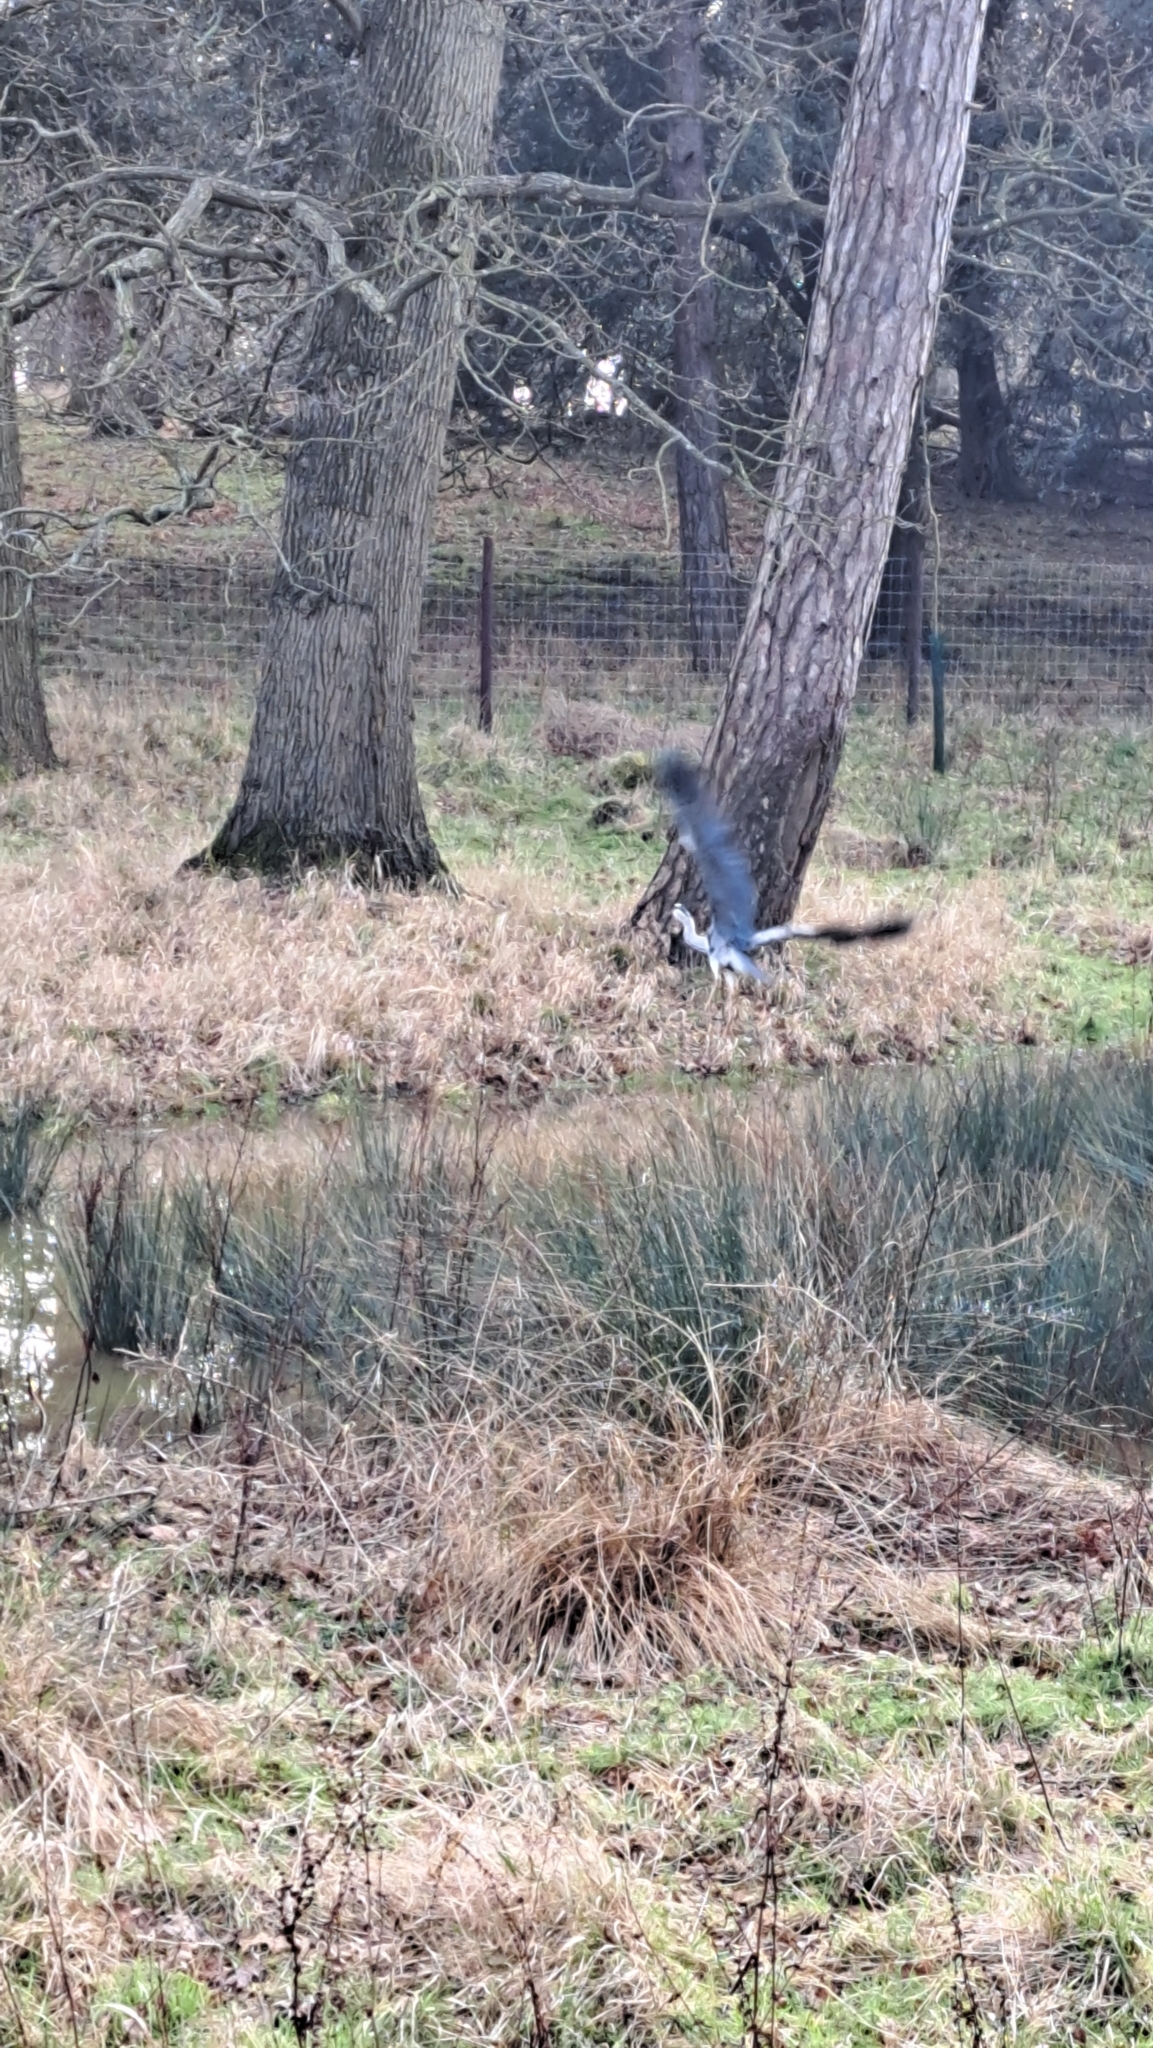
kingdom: Animalia
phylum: Chordata
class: Aves
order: Pelecaniformes
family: Ardeidae
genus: Ardea
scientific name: Ardea cinerea
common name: Grey heron
